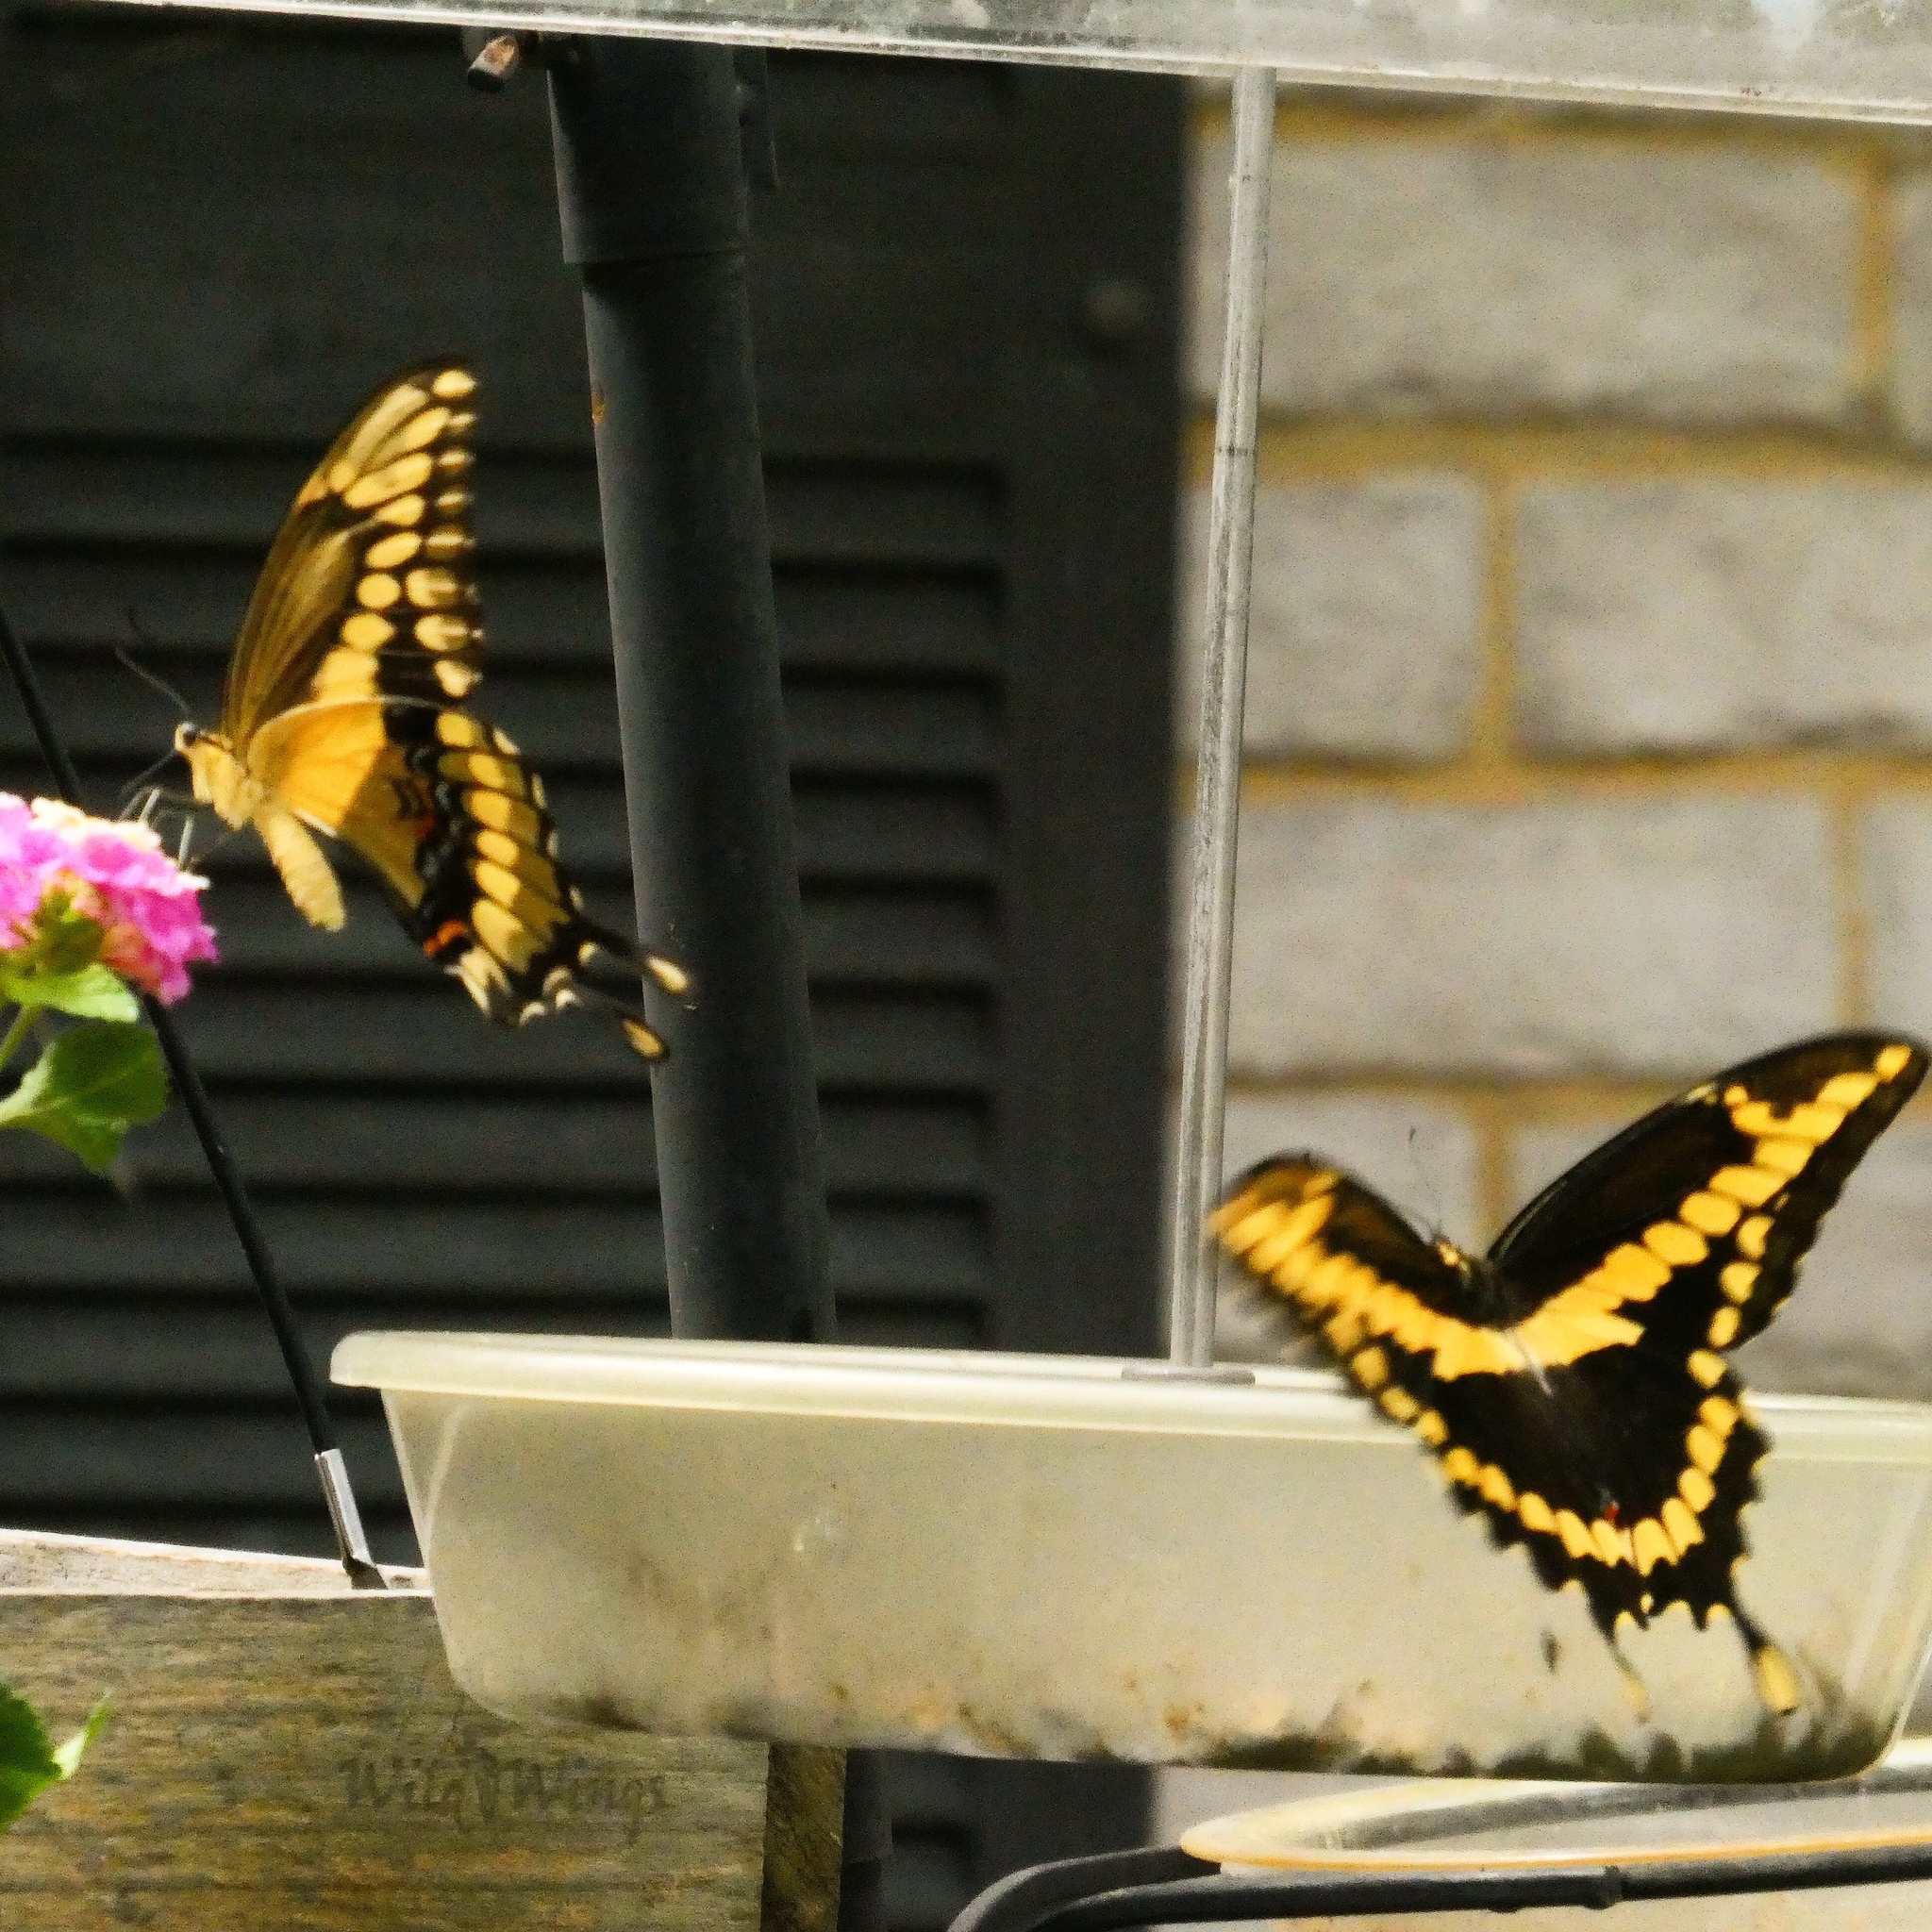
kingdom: Animalia
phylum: Arthropoda
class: Insecta
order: Lepidoptera
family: Papilionidae
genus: Papilio
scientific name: Papilio cresphontes
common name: Giant swallowtail
